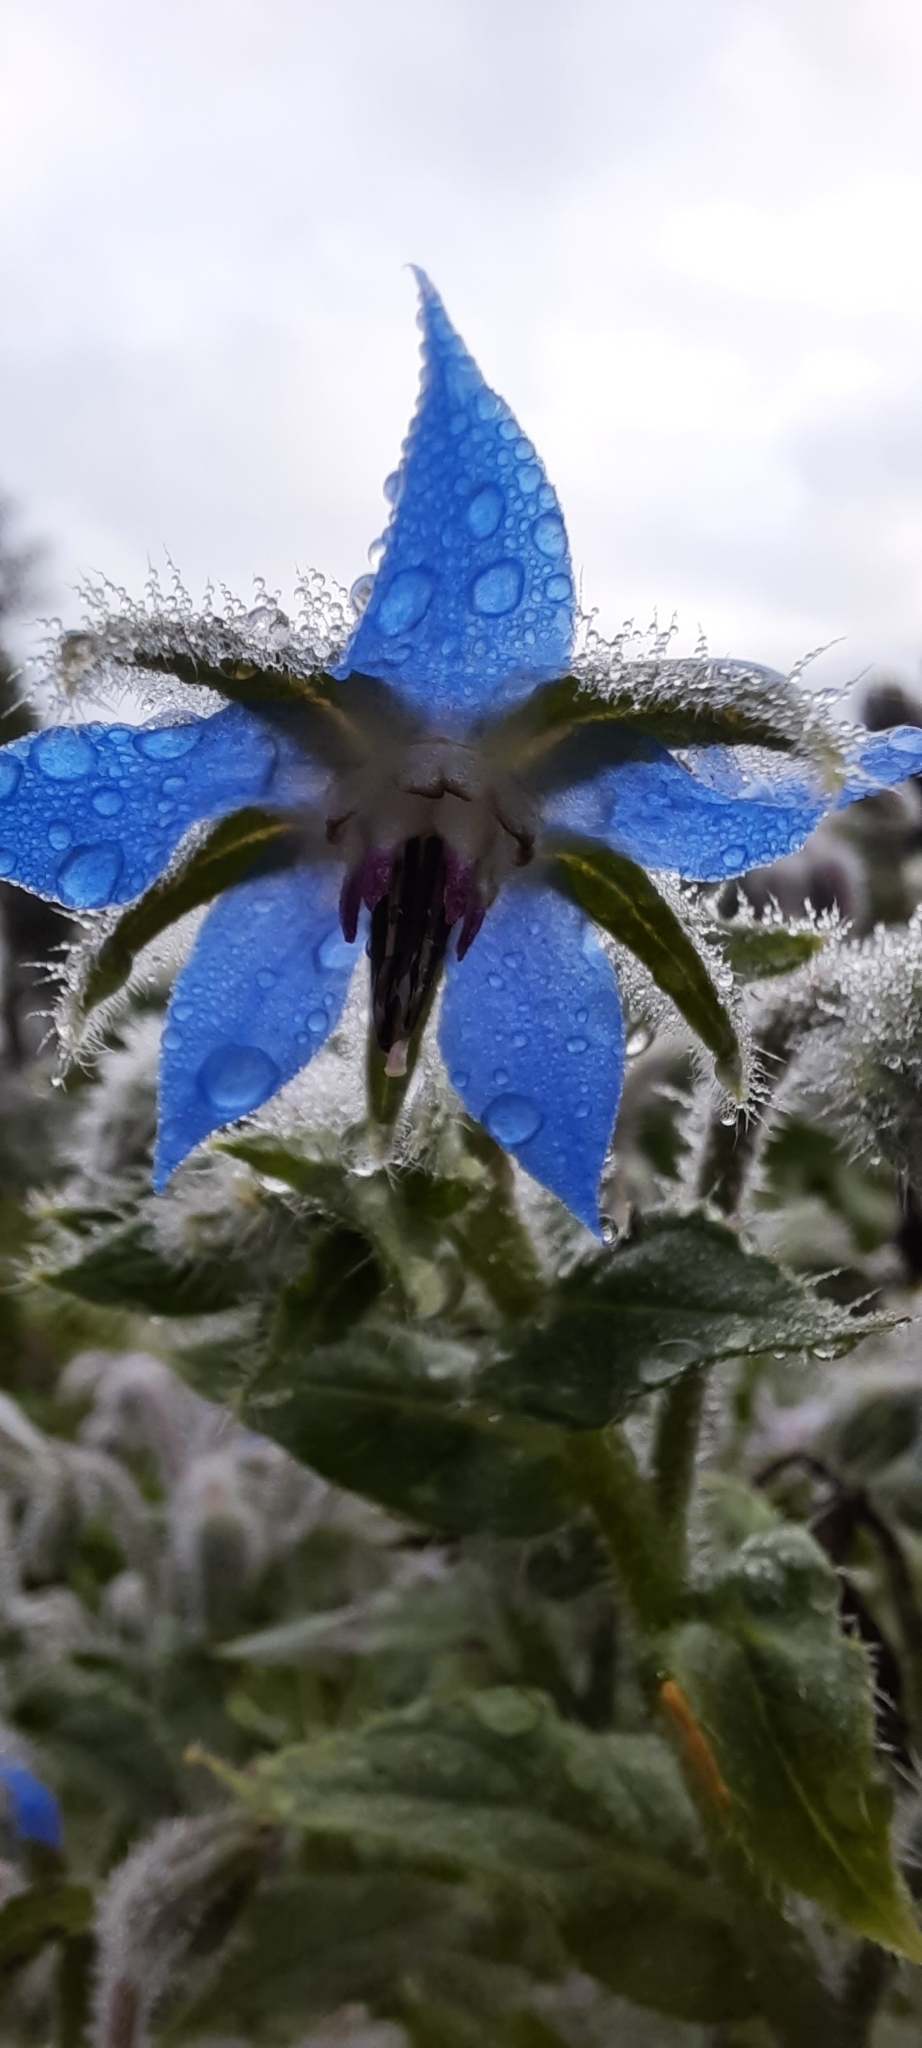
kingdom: Plantae
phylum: Tracheophyta
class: Magnoliopsida
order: Boraginales
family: Boraginaceae
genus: Borago
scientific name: Borago officinalis
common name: Borage
